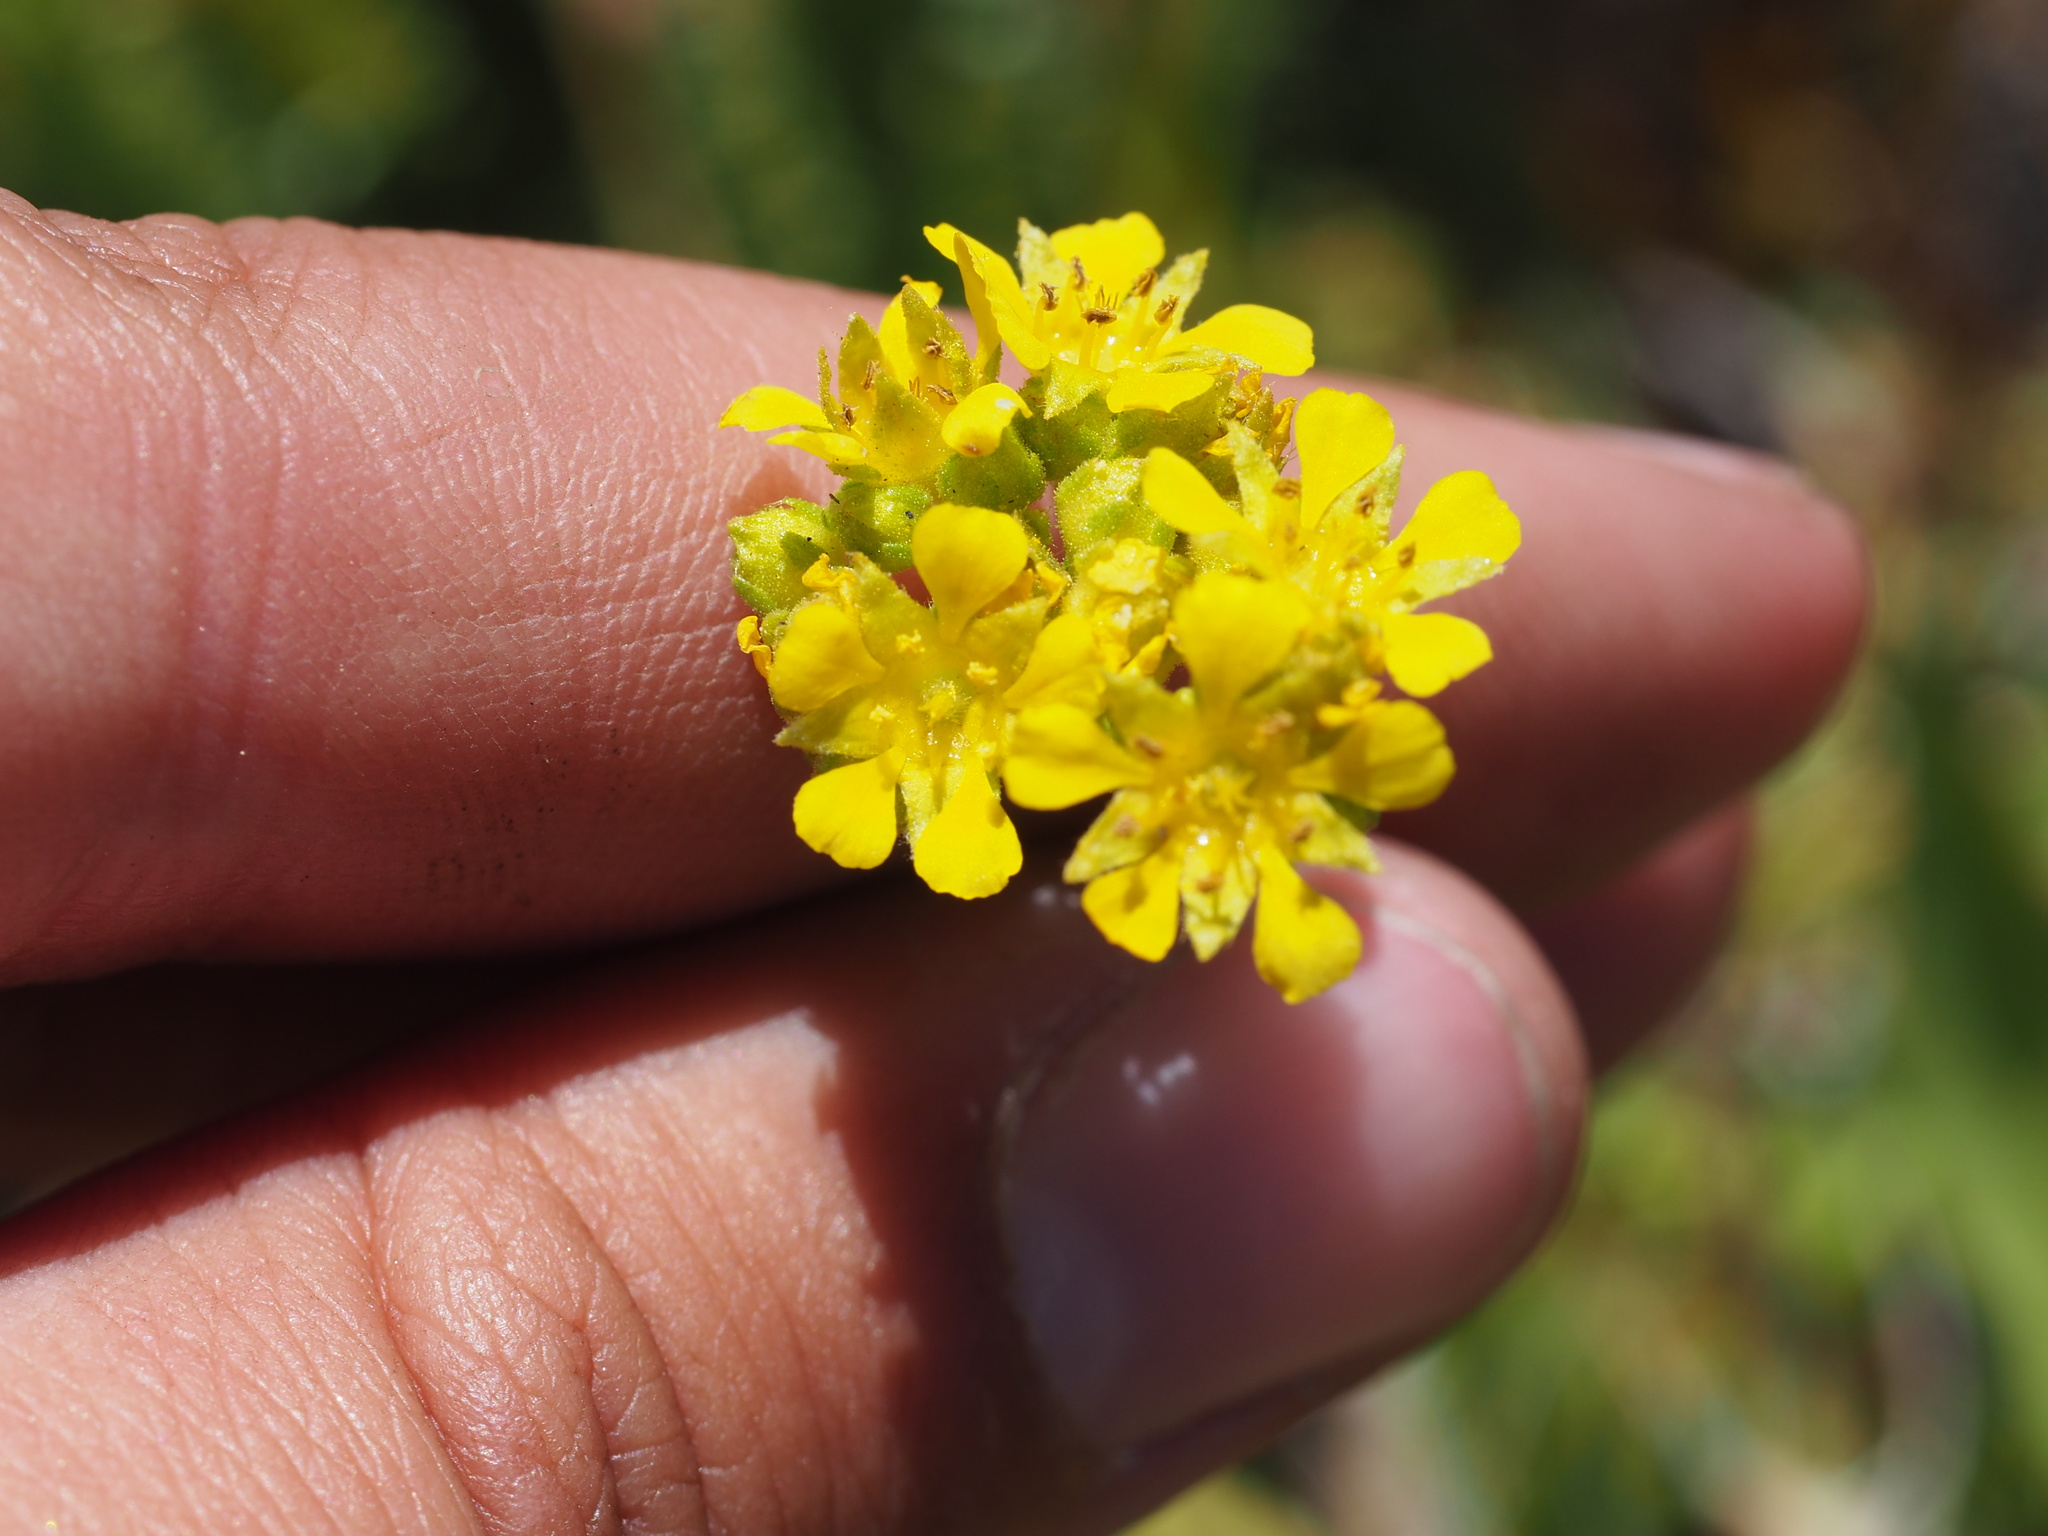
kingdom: Plantae
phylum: Tracheophyta
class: Magnoliopsida
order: Rosales
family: Rosaceae
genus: Potentilla
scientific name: Potentilla lycopodioides
